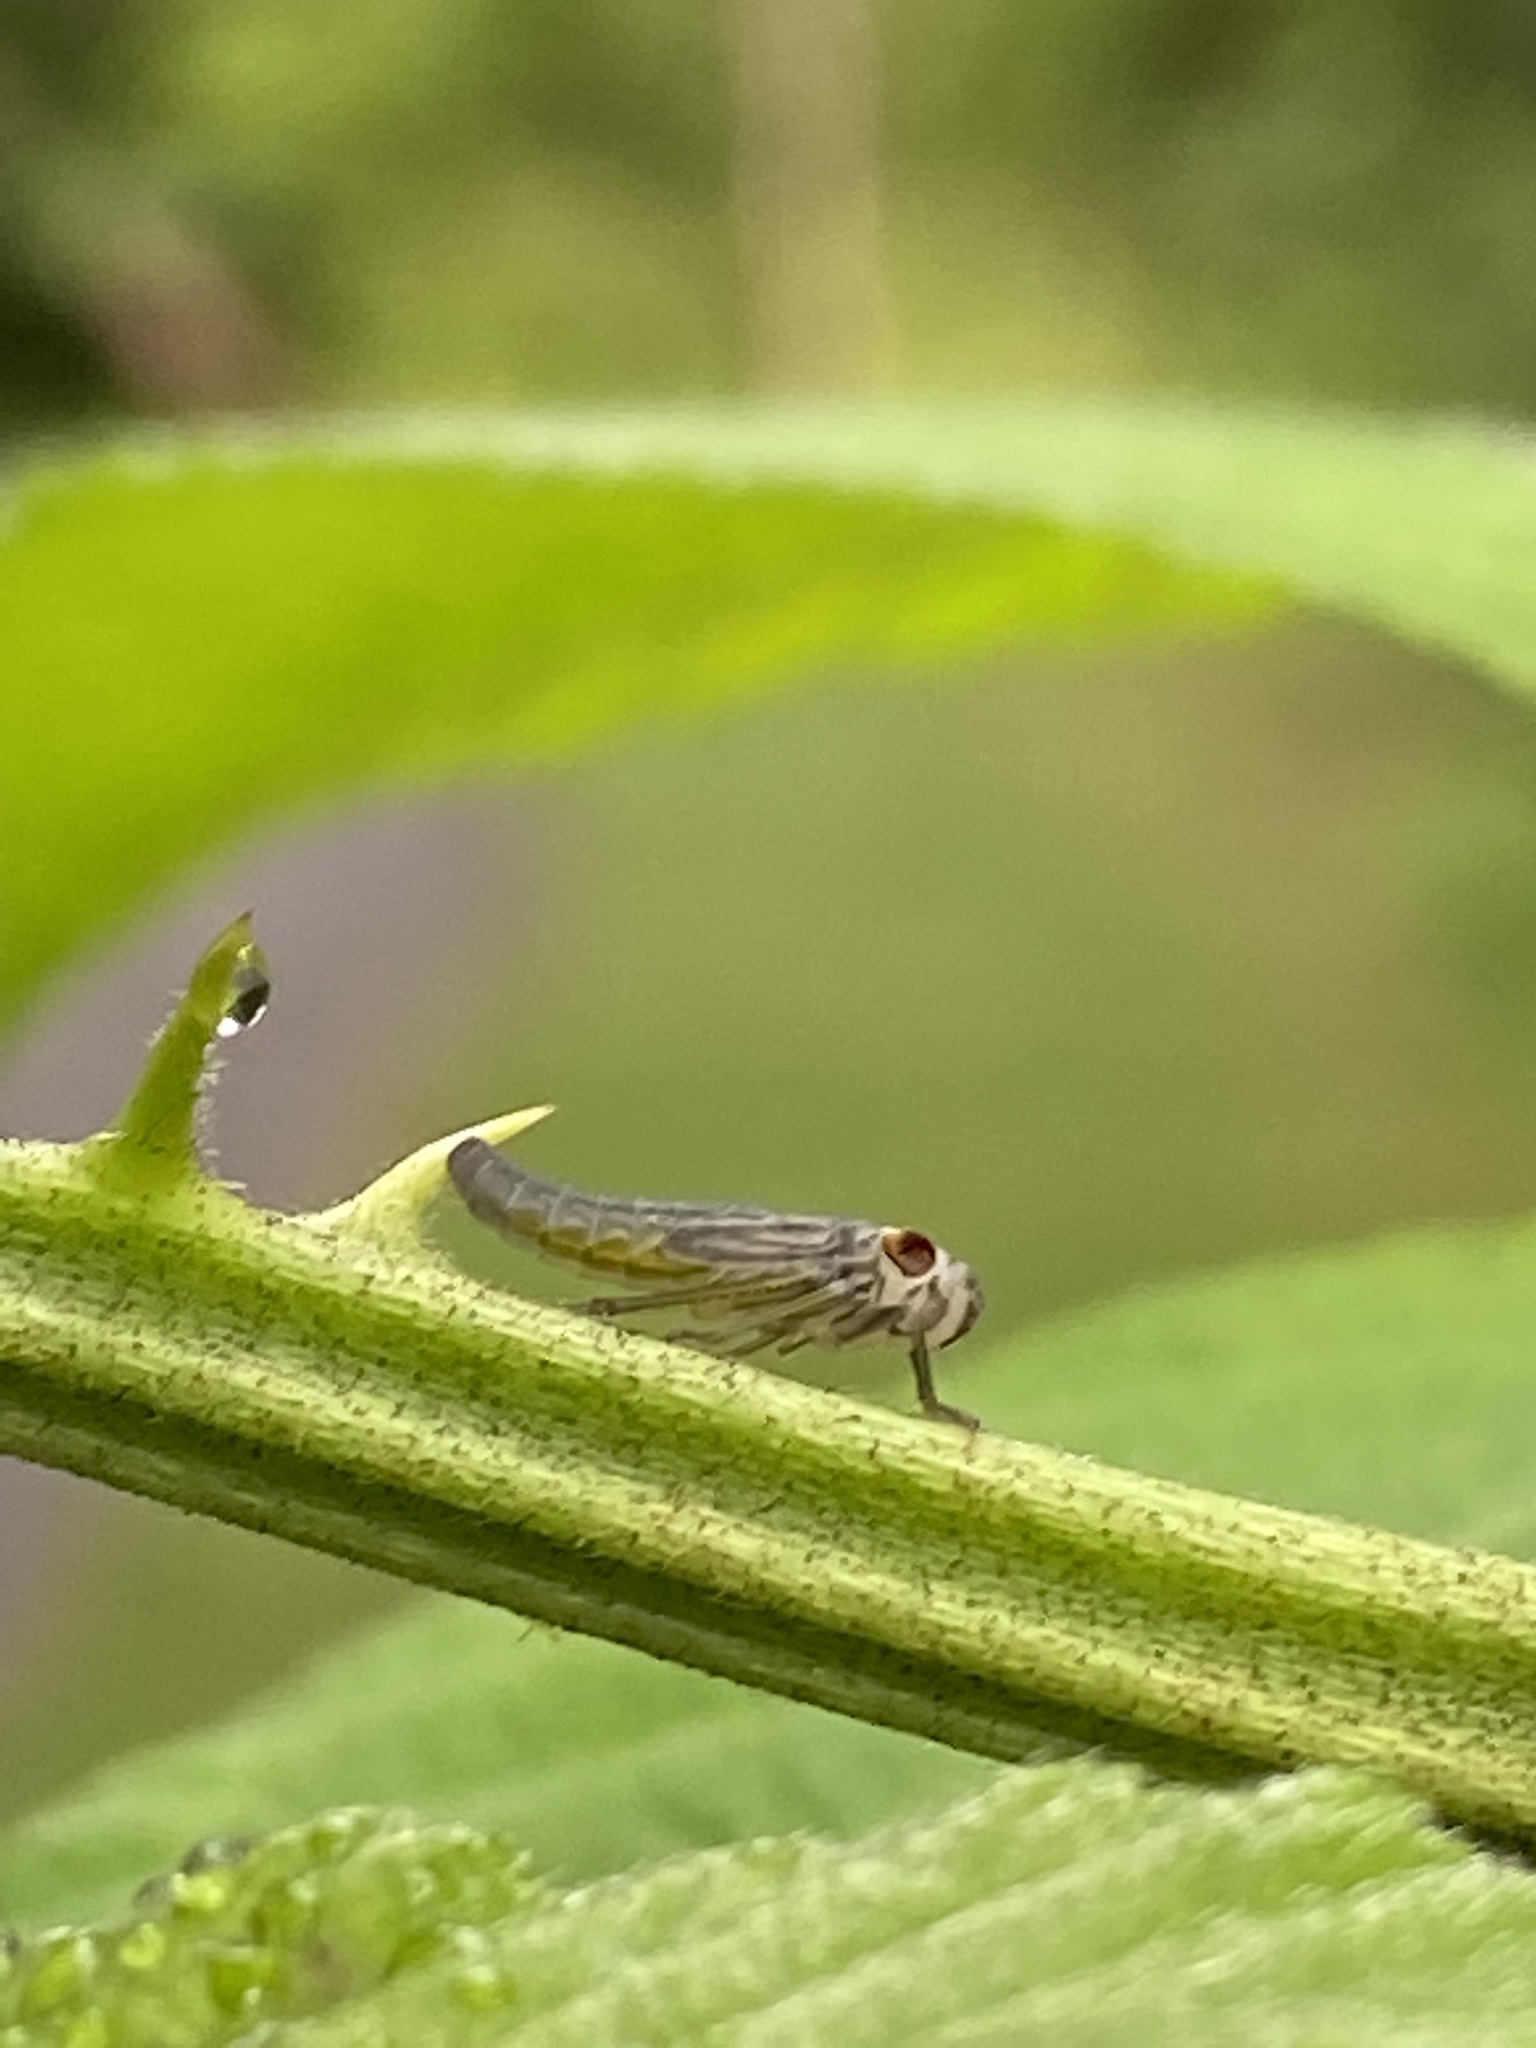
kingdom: Animalia
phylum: Arthropoda
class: Insecta
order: Hemiptera
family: Cicadellidae
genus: Oncometopia
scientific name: Oncometopia orbona
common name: Broad-headed sharpshooter
